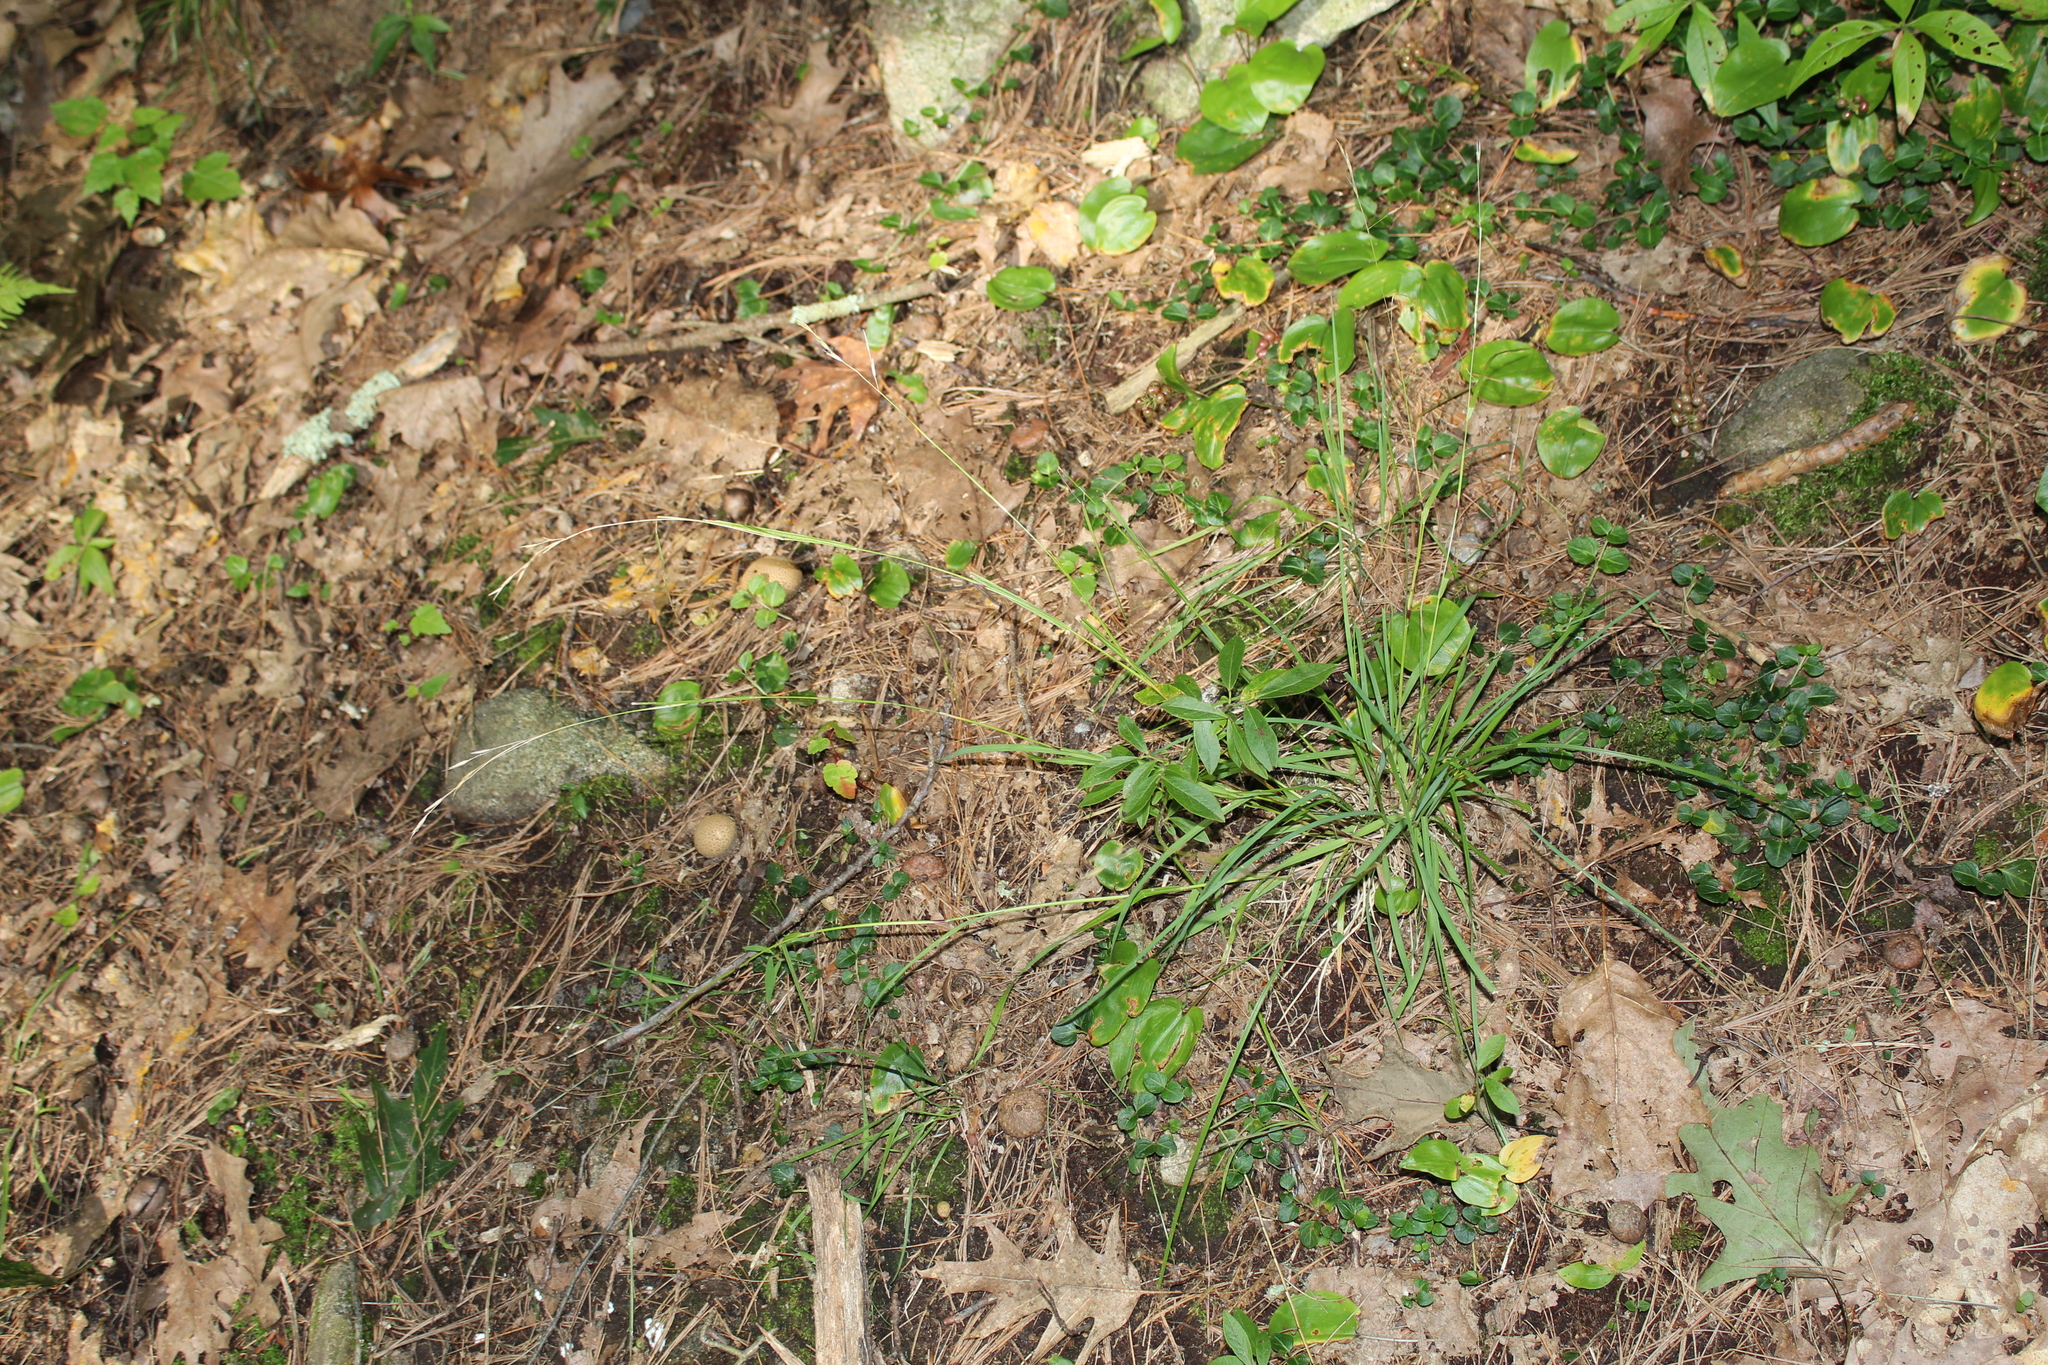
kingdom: Plantae
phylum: Tracheophyta
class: Liliopsida
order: Poales
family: Poaceae
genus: Danthonia
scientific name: Danthonia spicata
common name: Common wild oatgrass
